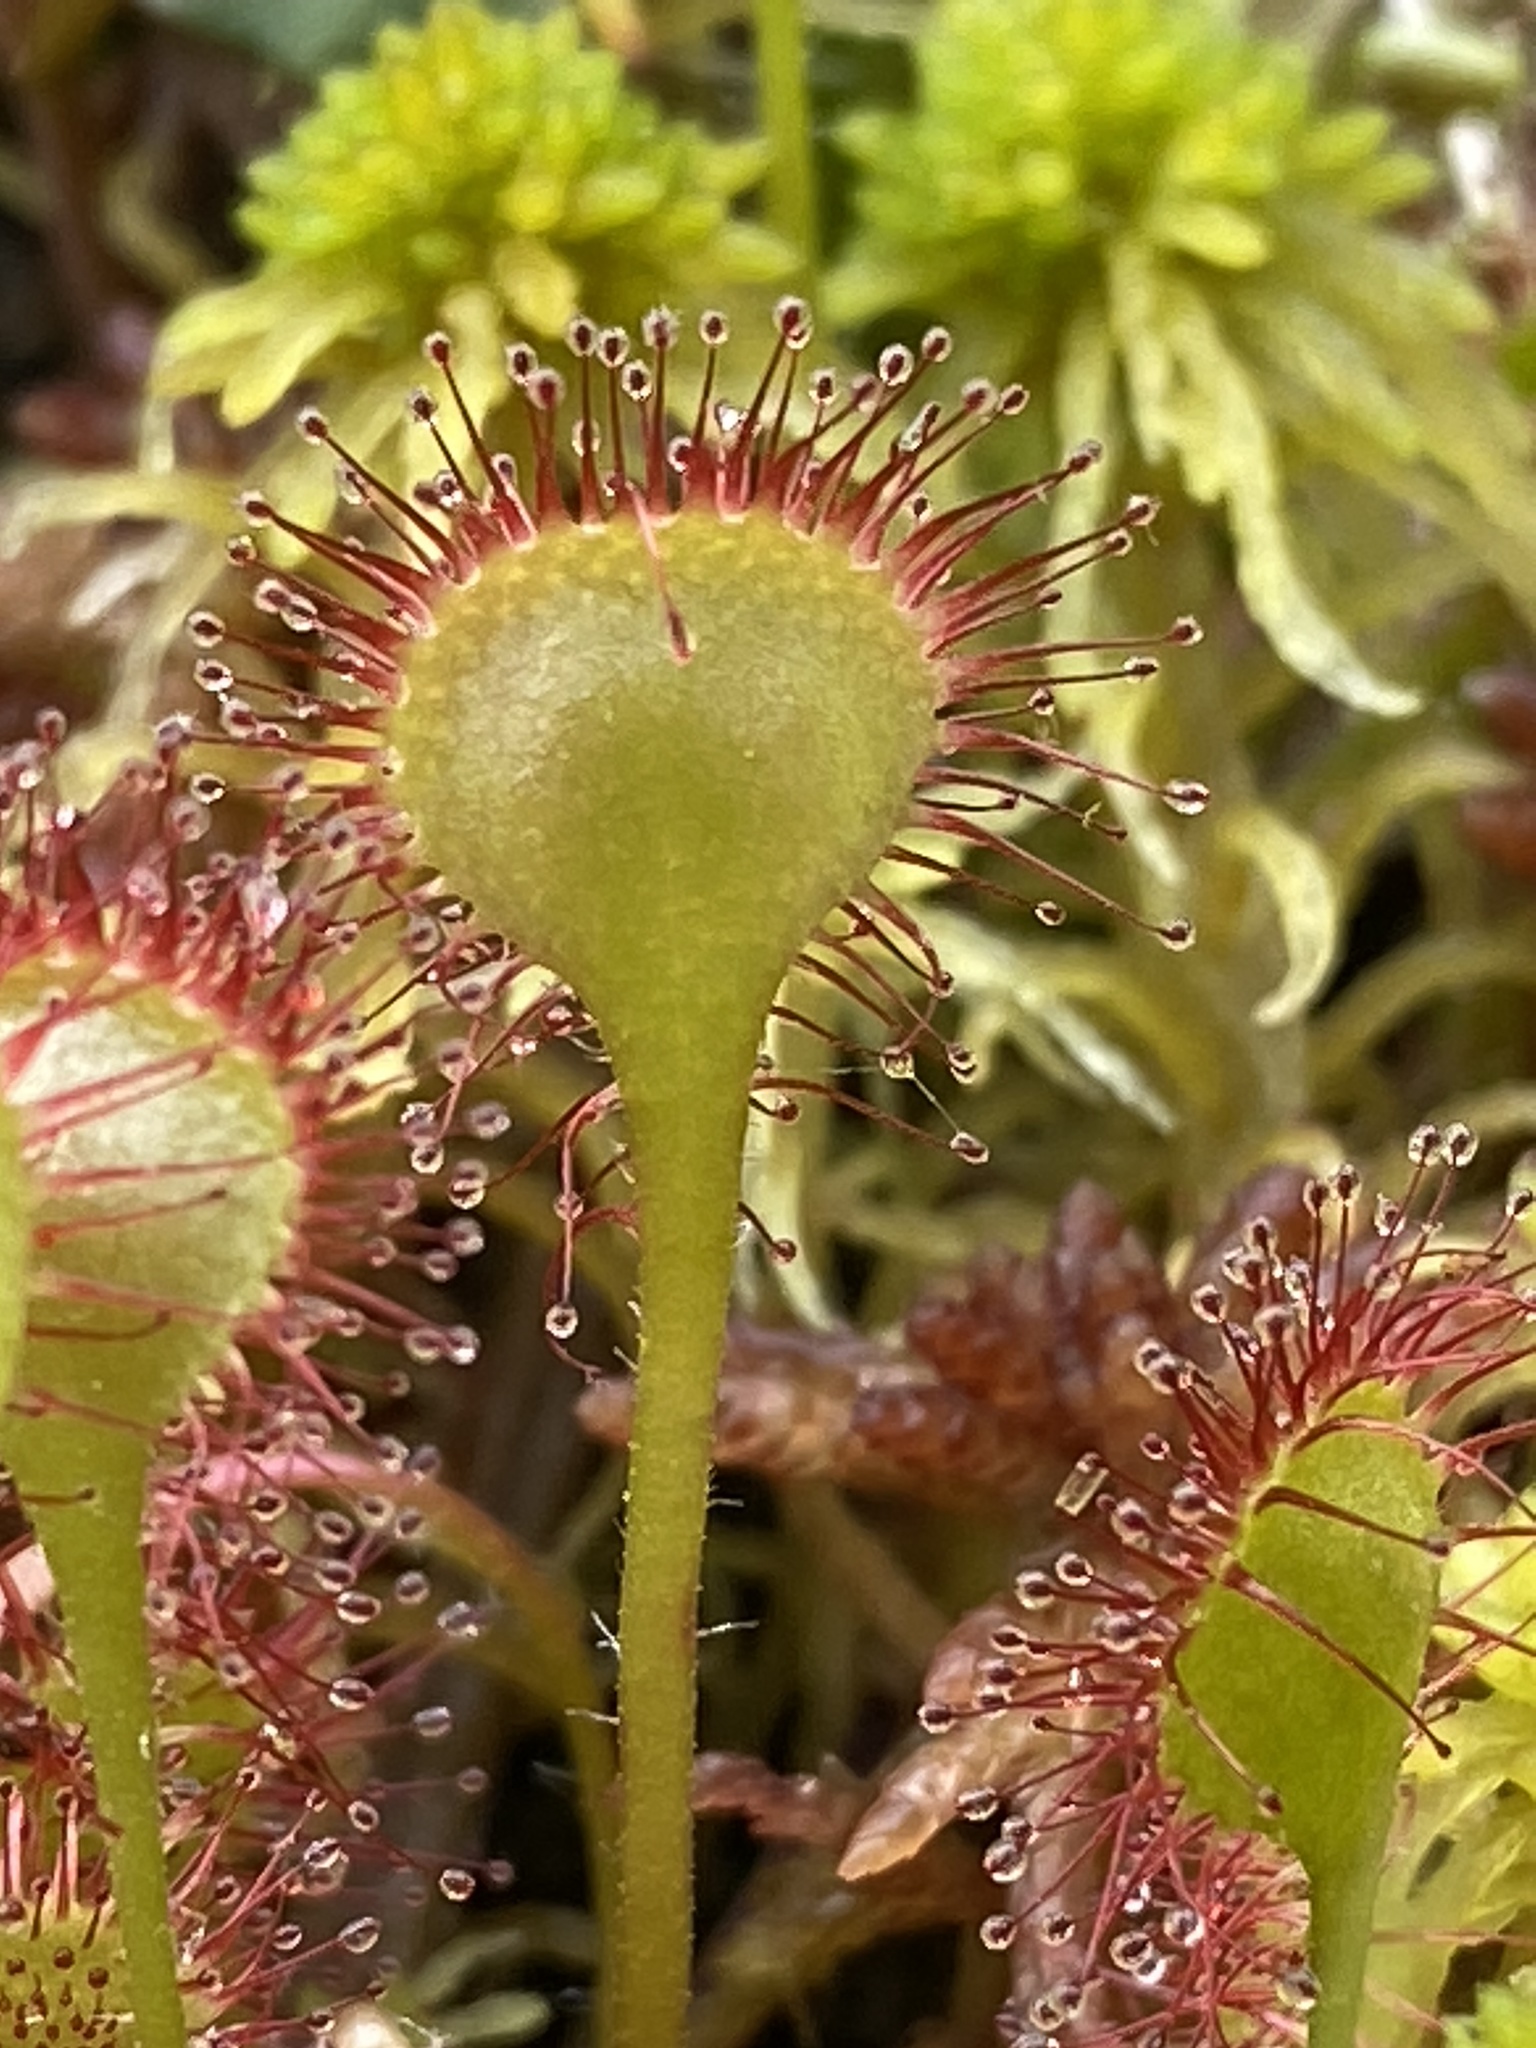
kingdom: Plantae
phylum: Tracheophyta
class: Magnoliopsida
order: Caryophyllales
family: Droseraceae
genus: Drosera
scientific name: Drosera rotundifolia
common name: Round-leaved sundew
